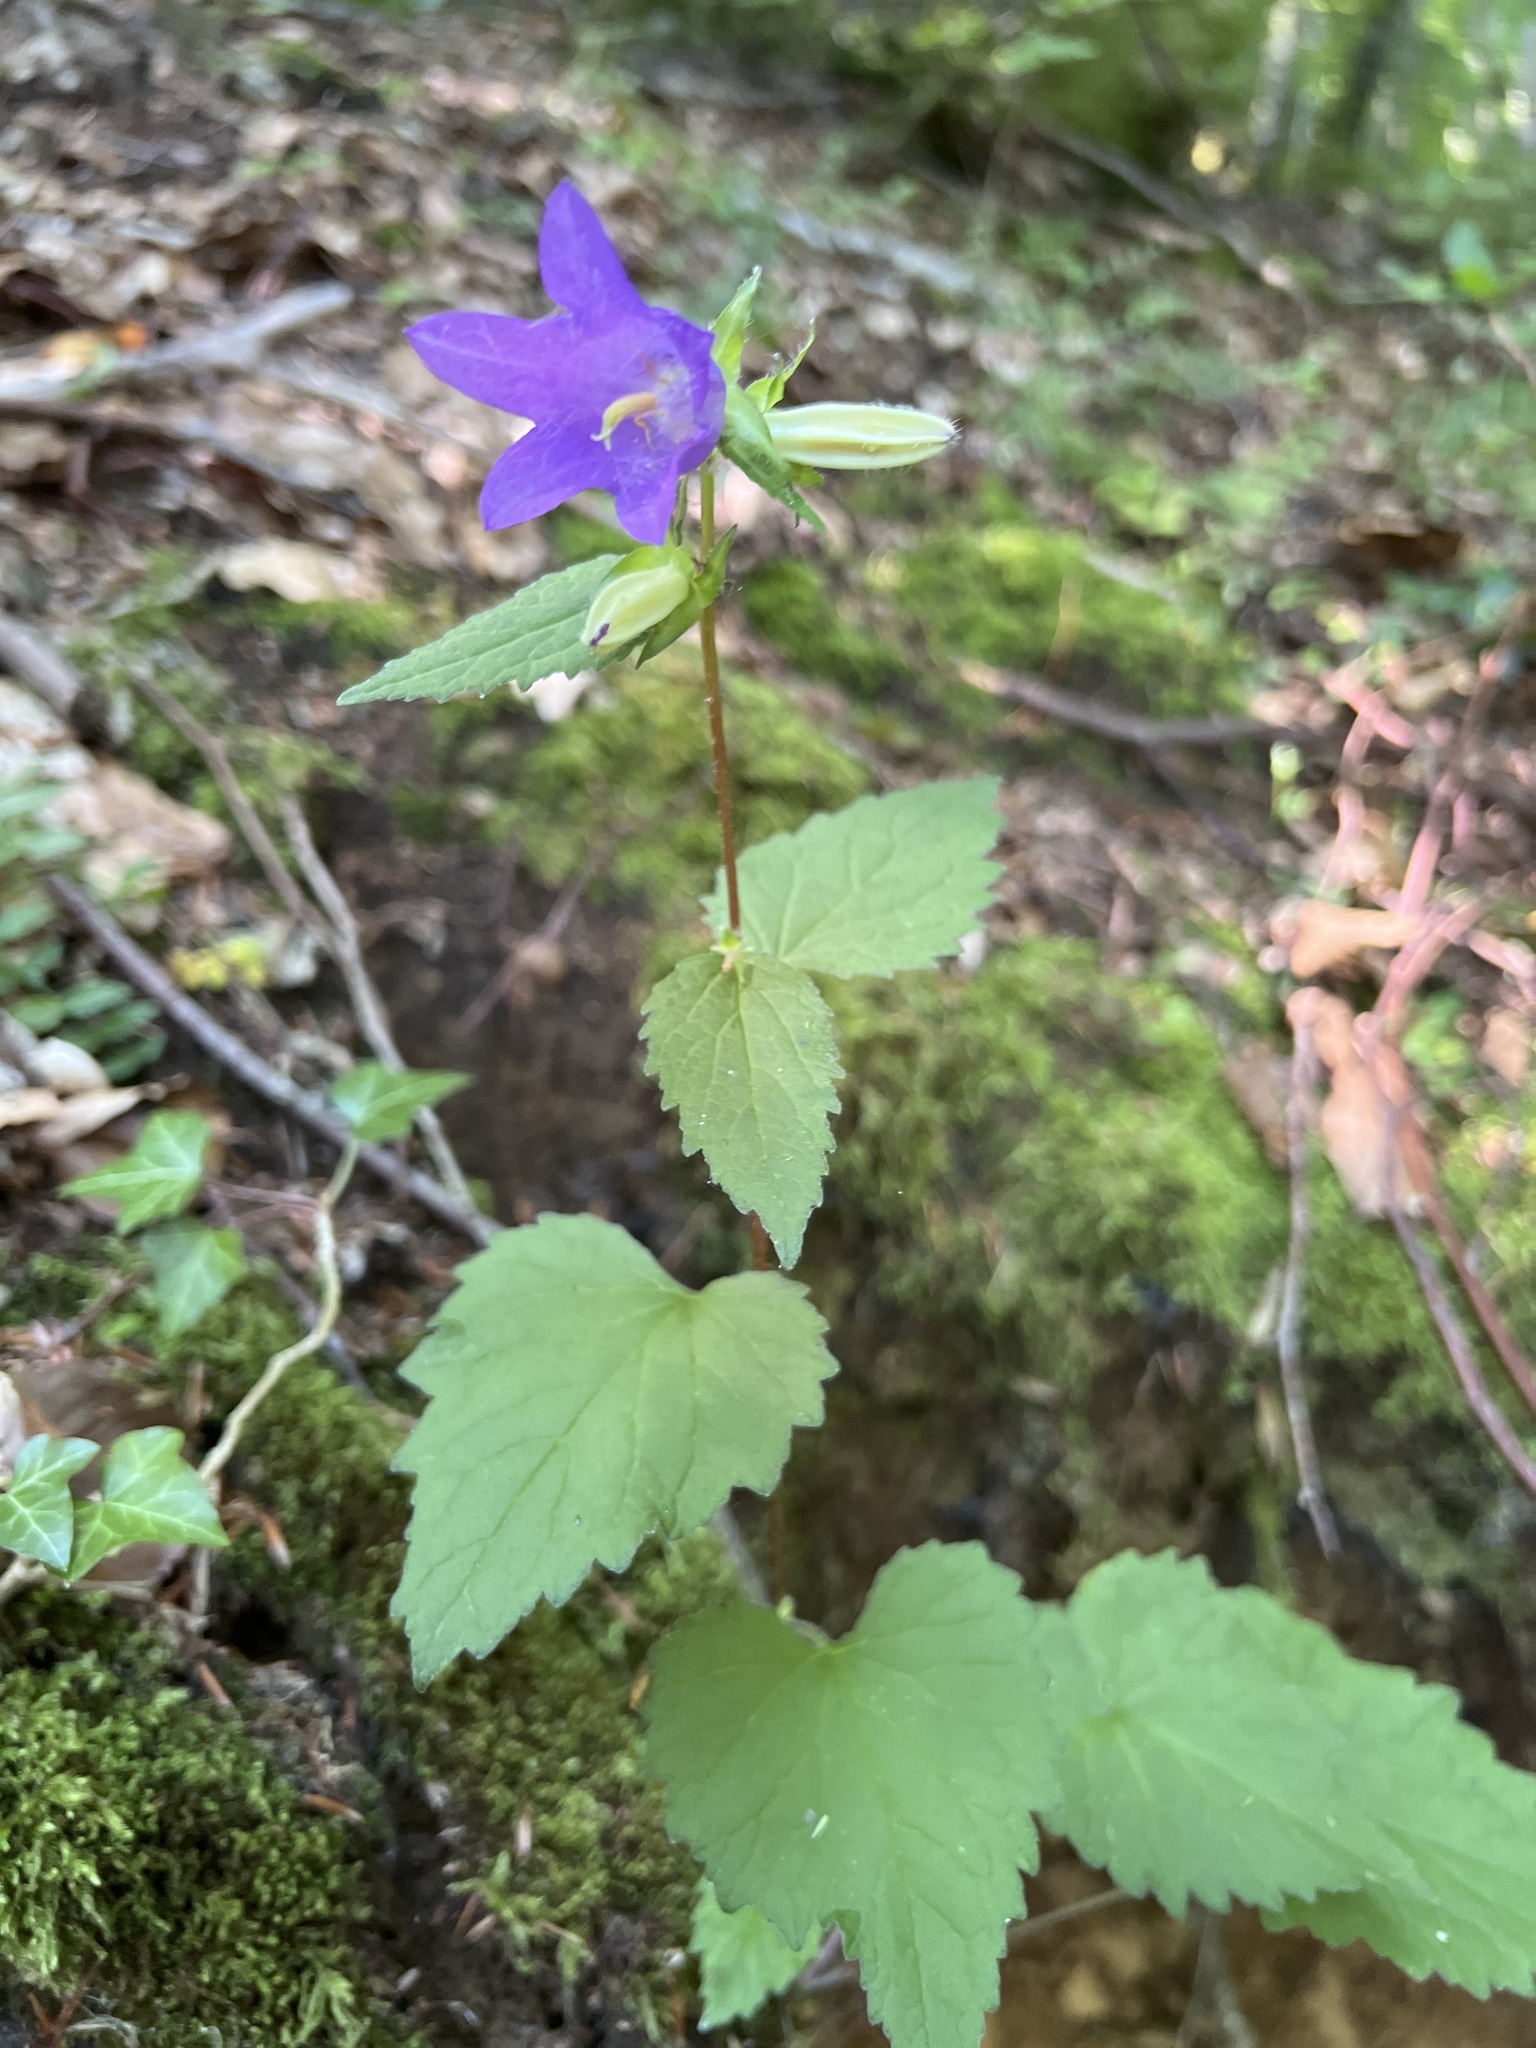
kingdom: Plantae
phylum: Tracheophyta
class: Magnoliopsida
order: Asterales
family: Campanulaceae
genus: Campanula
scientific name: Campanula trachelium
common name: Nettle-leaved bellflower
